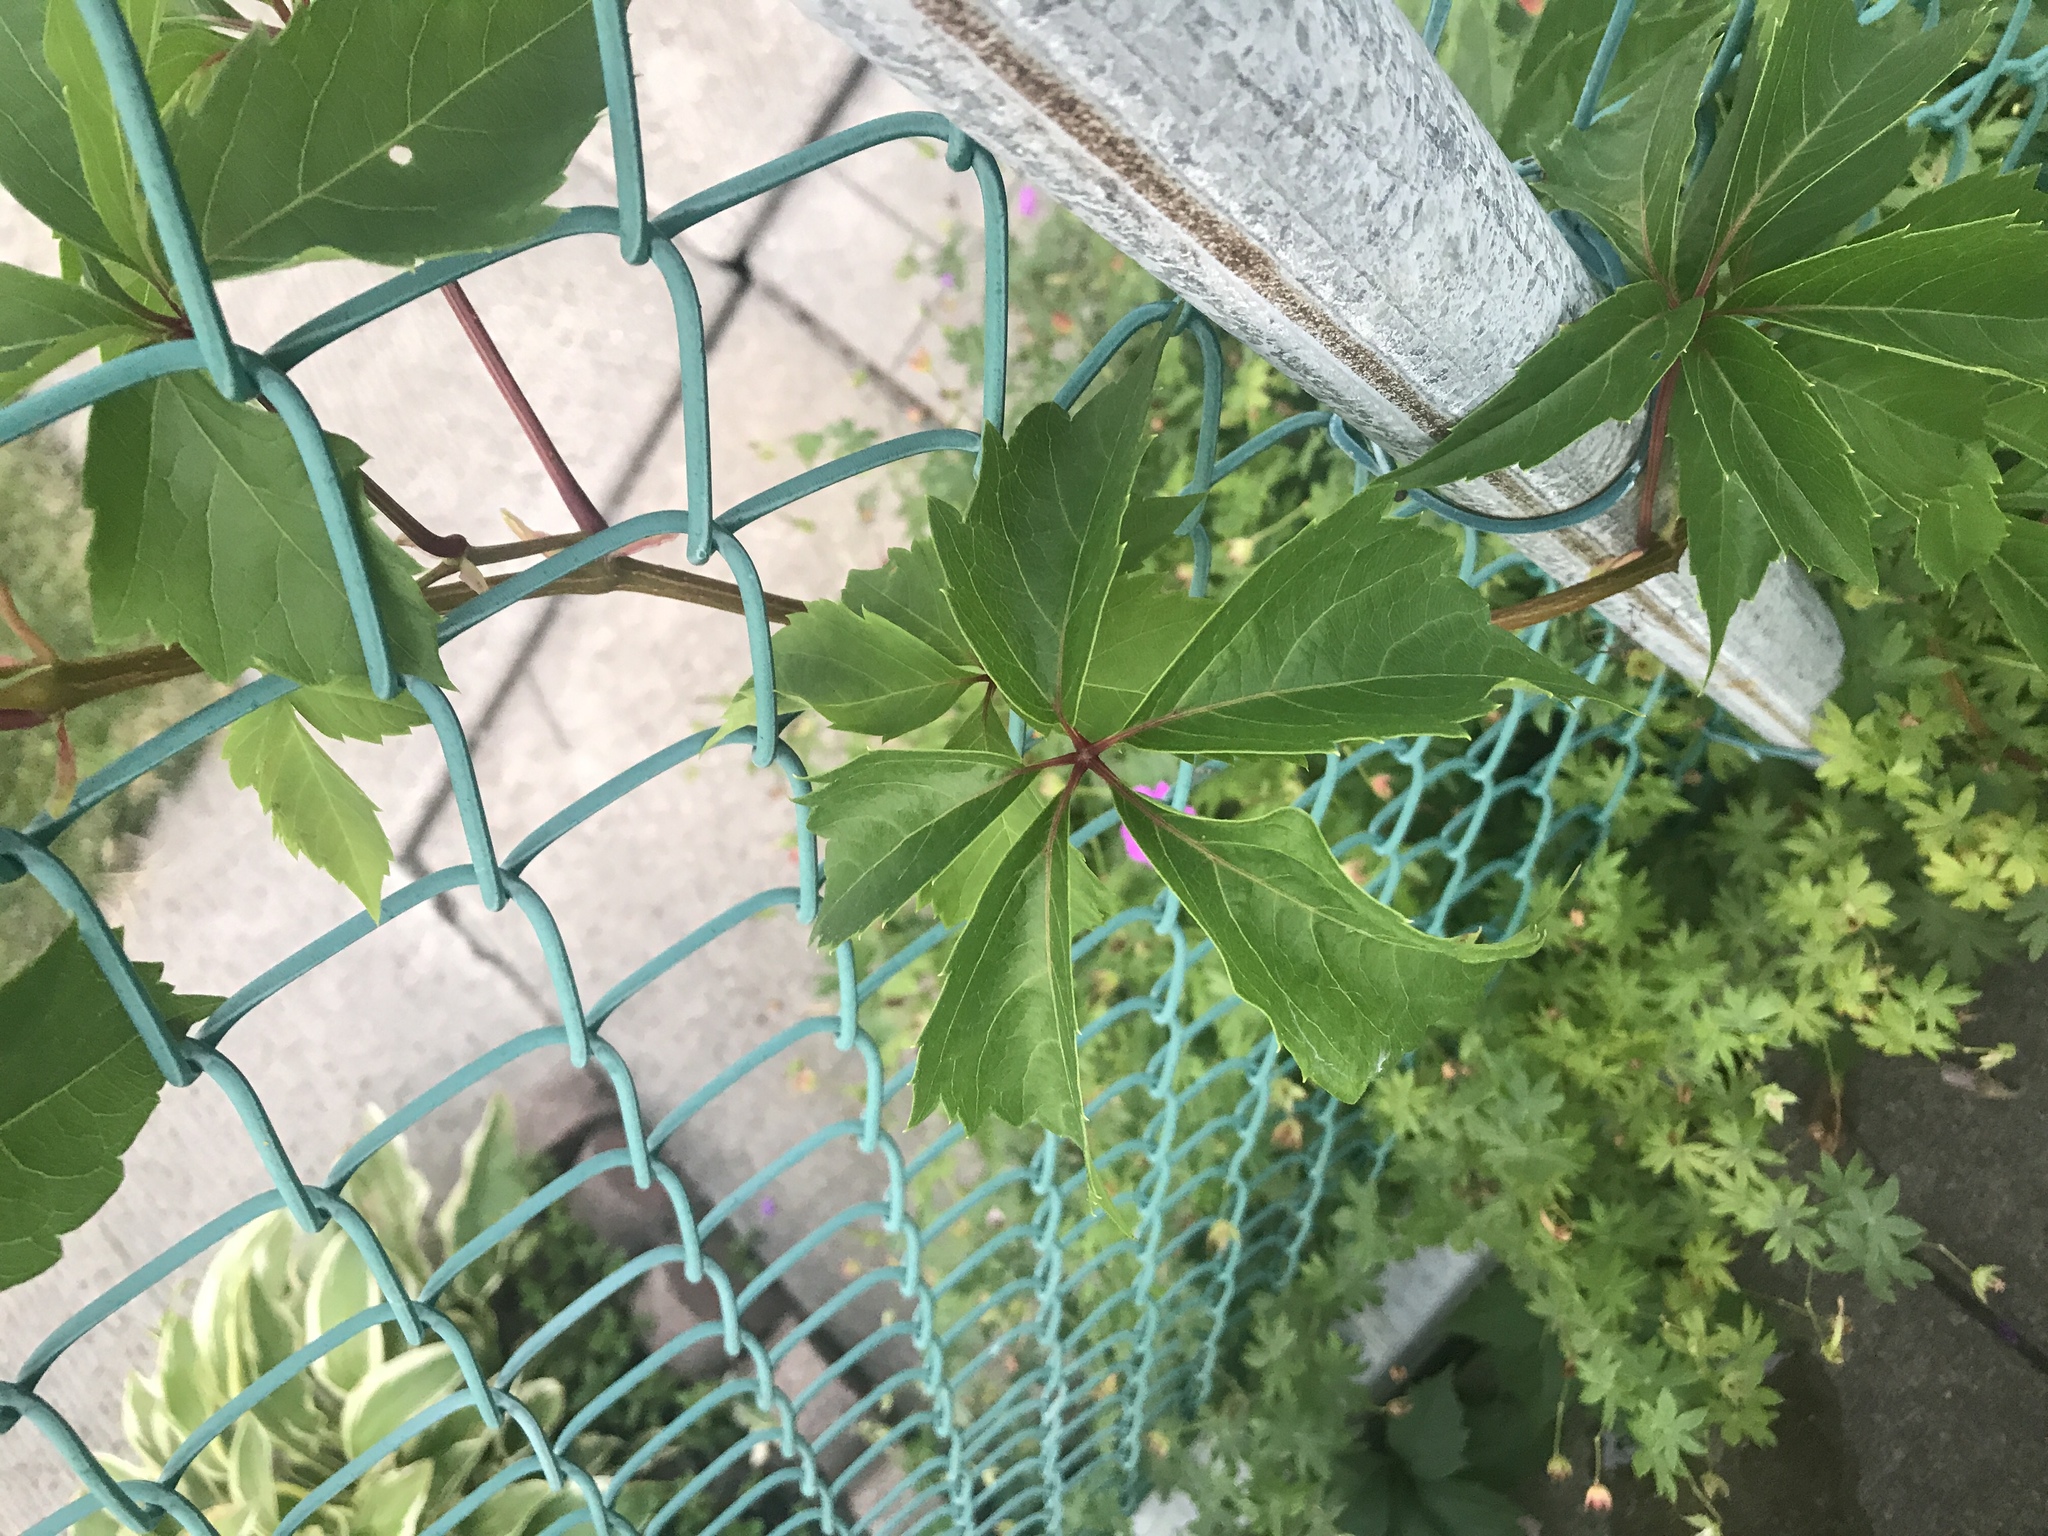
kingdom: Plantae
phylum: Tracheophyta
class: Magnoliopsida
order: Vitales
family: Vitaceae
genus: Parthenocissus
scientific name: Parthenocissus quinquefolia
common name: Virginia-creeper
